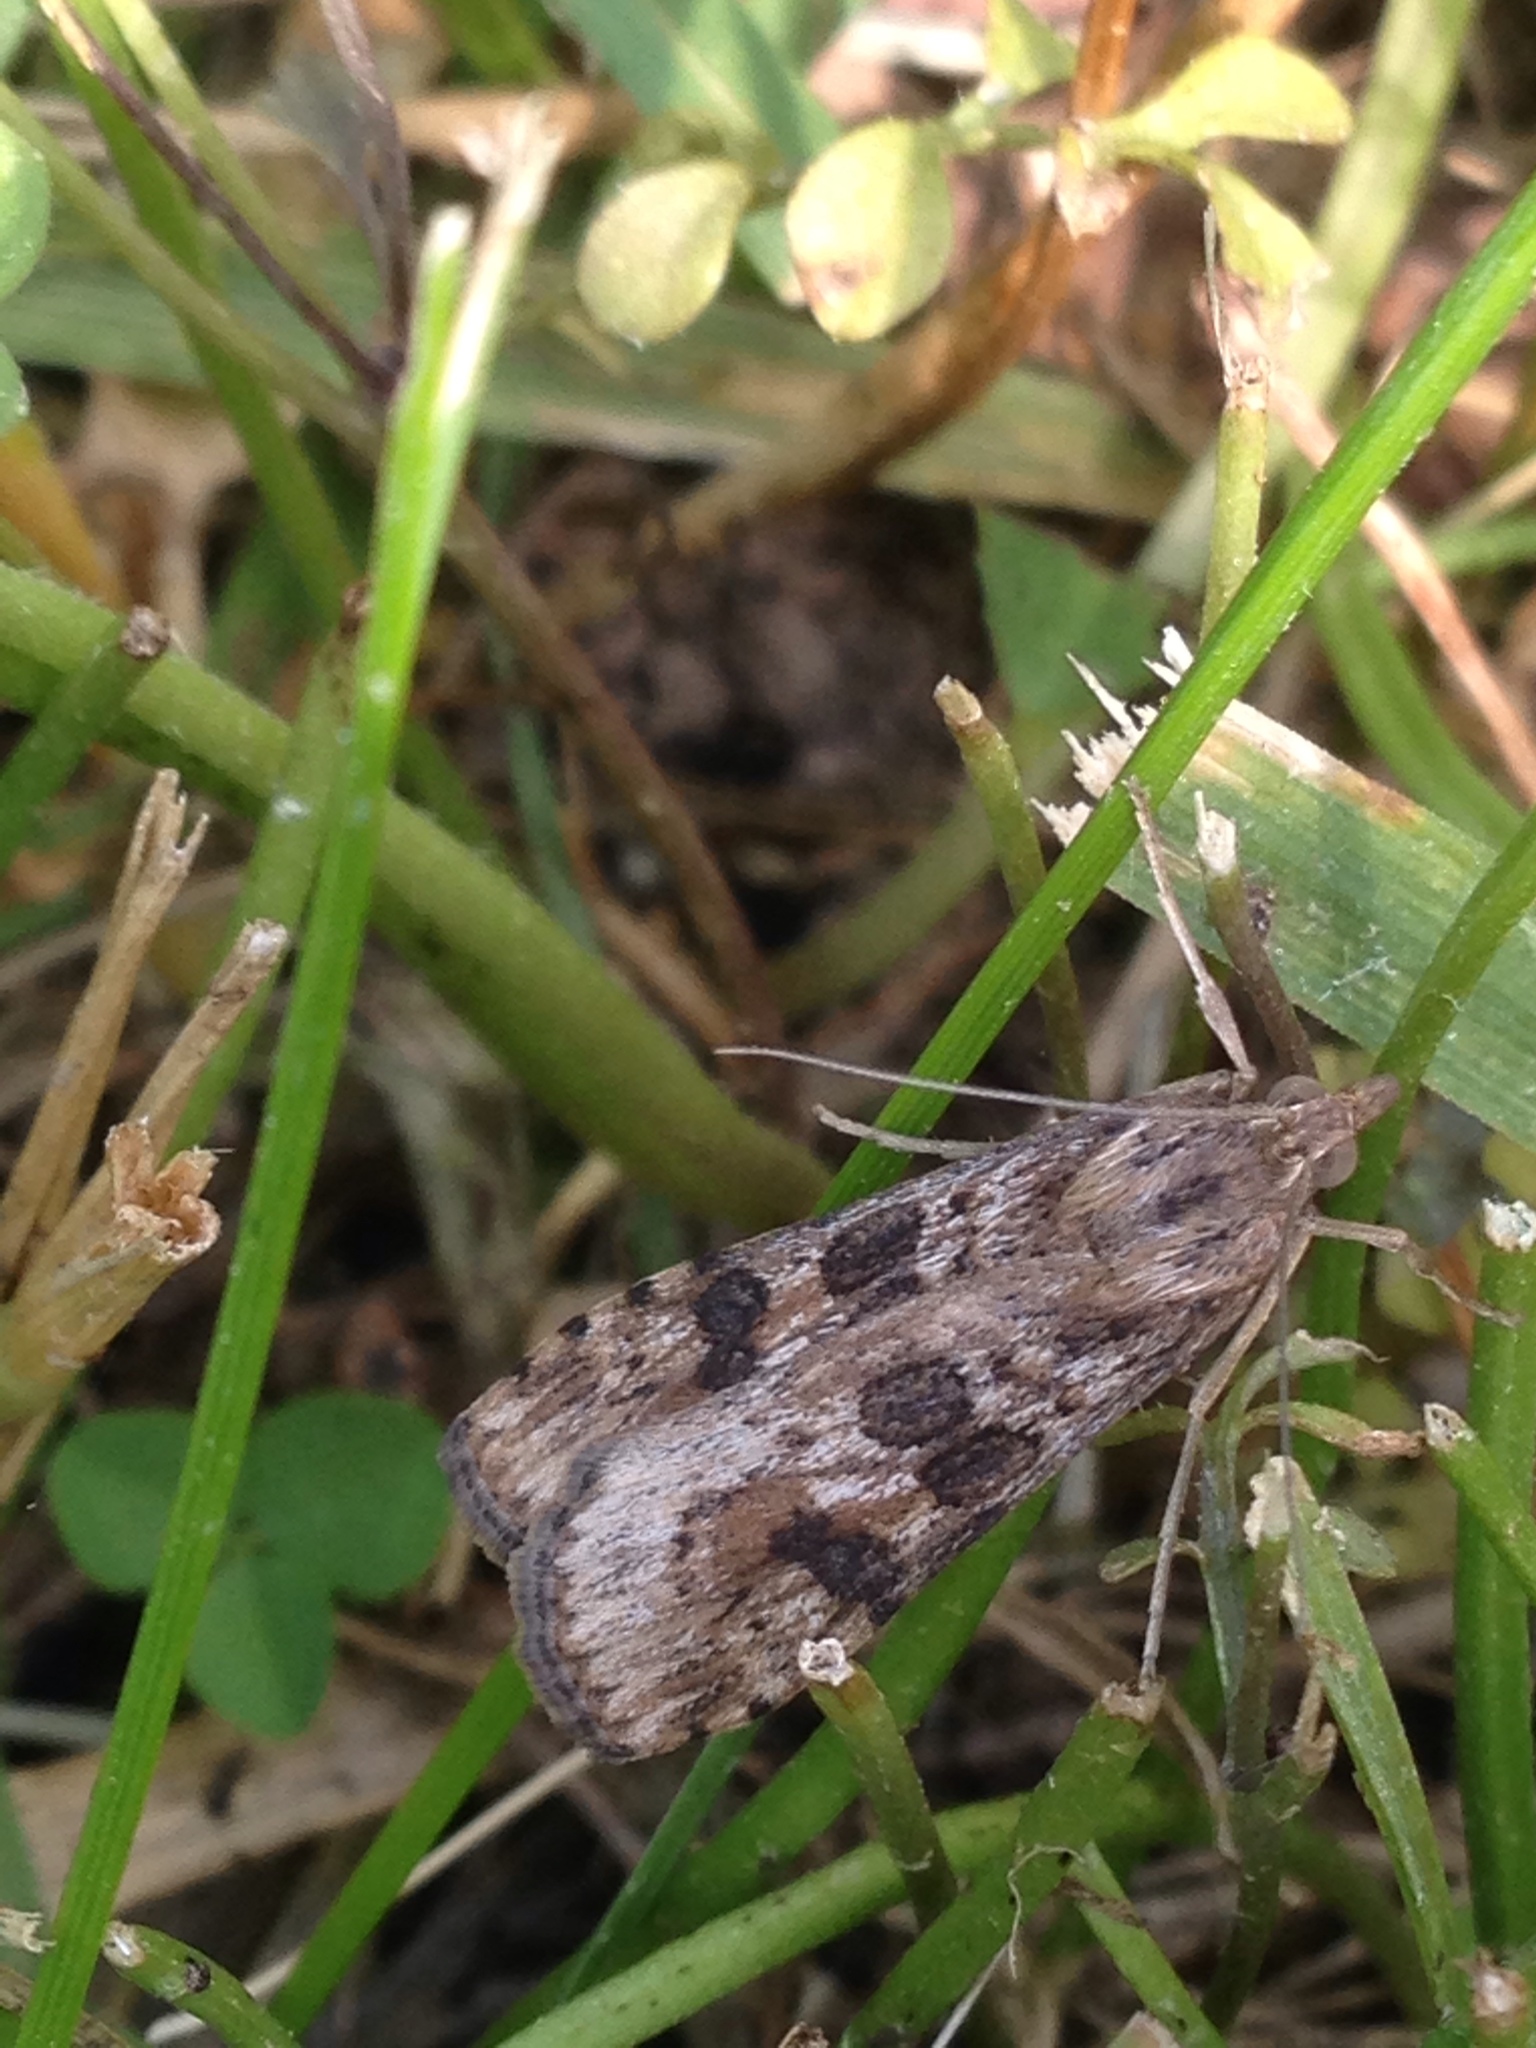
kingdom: Animalia
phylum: Arthropoda
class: Insecta
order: Lepidoptera
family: Crambidae
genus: Nomophila
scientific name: Nomophila nearctica
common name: American rush veneer
